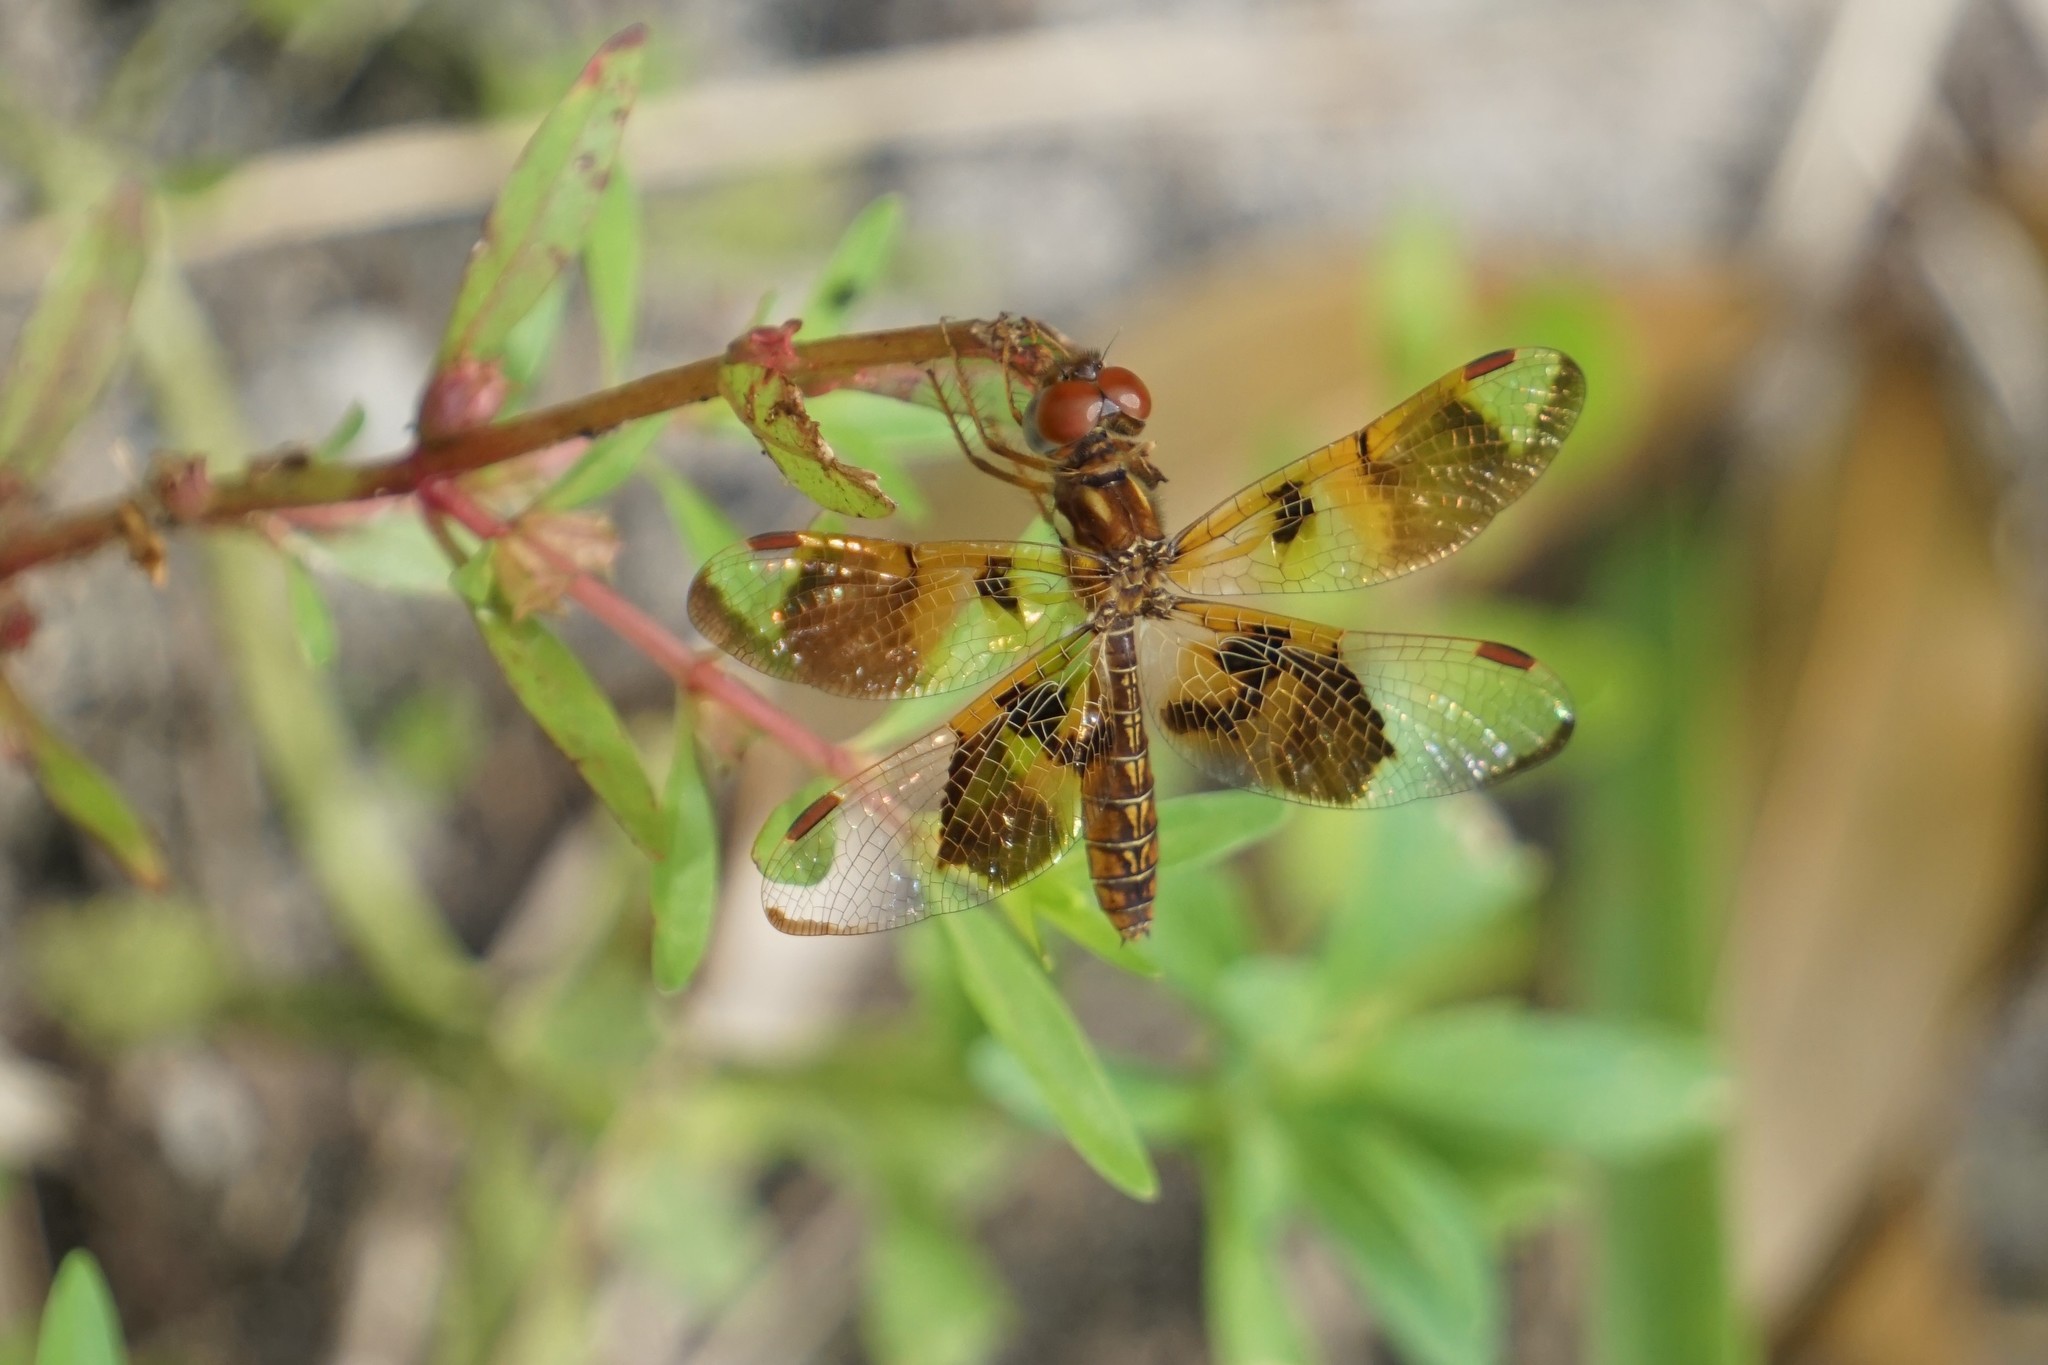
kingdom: Animalia
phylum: Arthropoda
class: Insecta
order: Odonata
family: Libellulidae
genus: Perithemis
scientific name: Perithemis tenera
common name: Eastern amberwing
